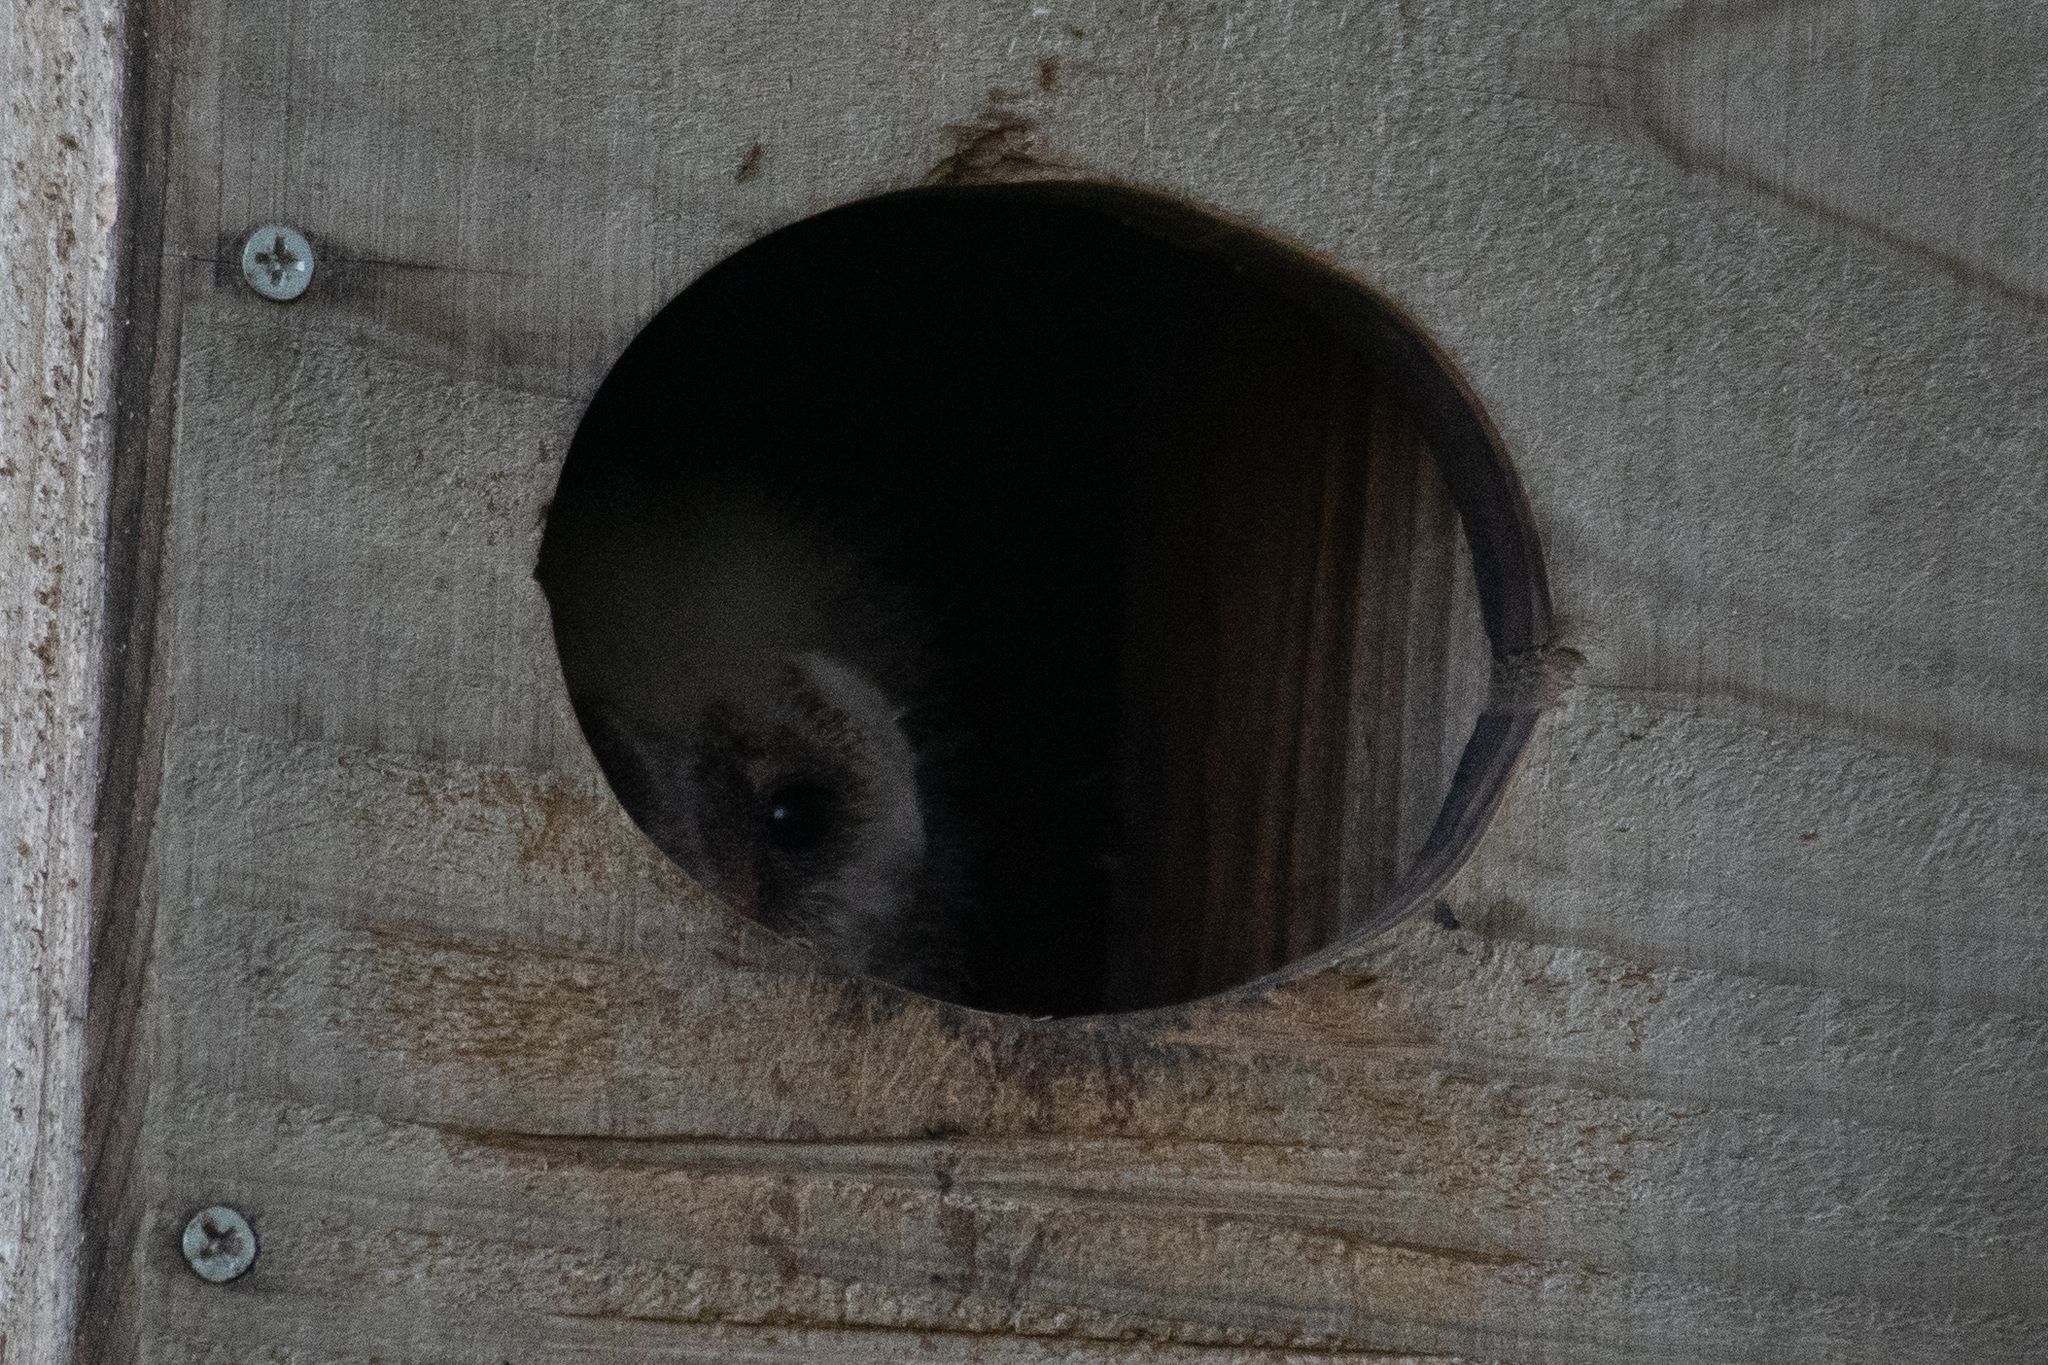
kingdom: Animalia
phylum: Chordata
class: Aves
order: Strigiformes
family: Tytonidae
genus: Tyto
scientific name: Tyto alba
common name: Barn owl
